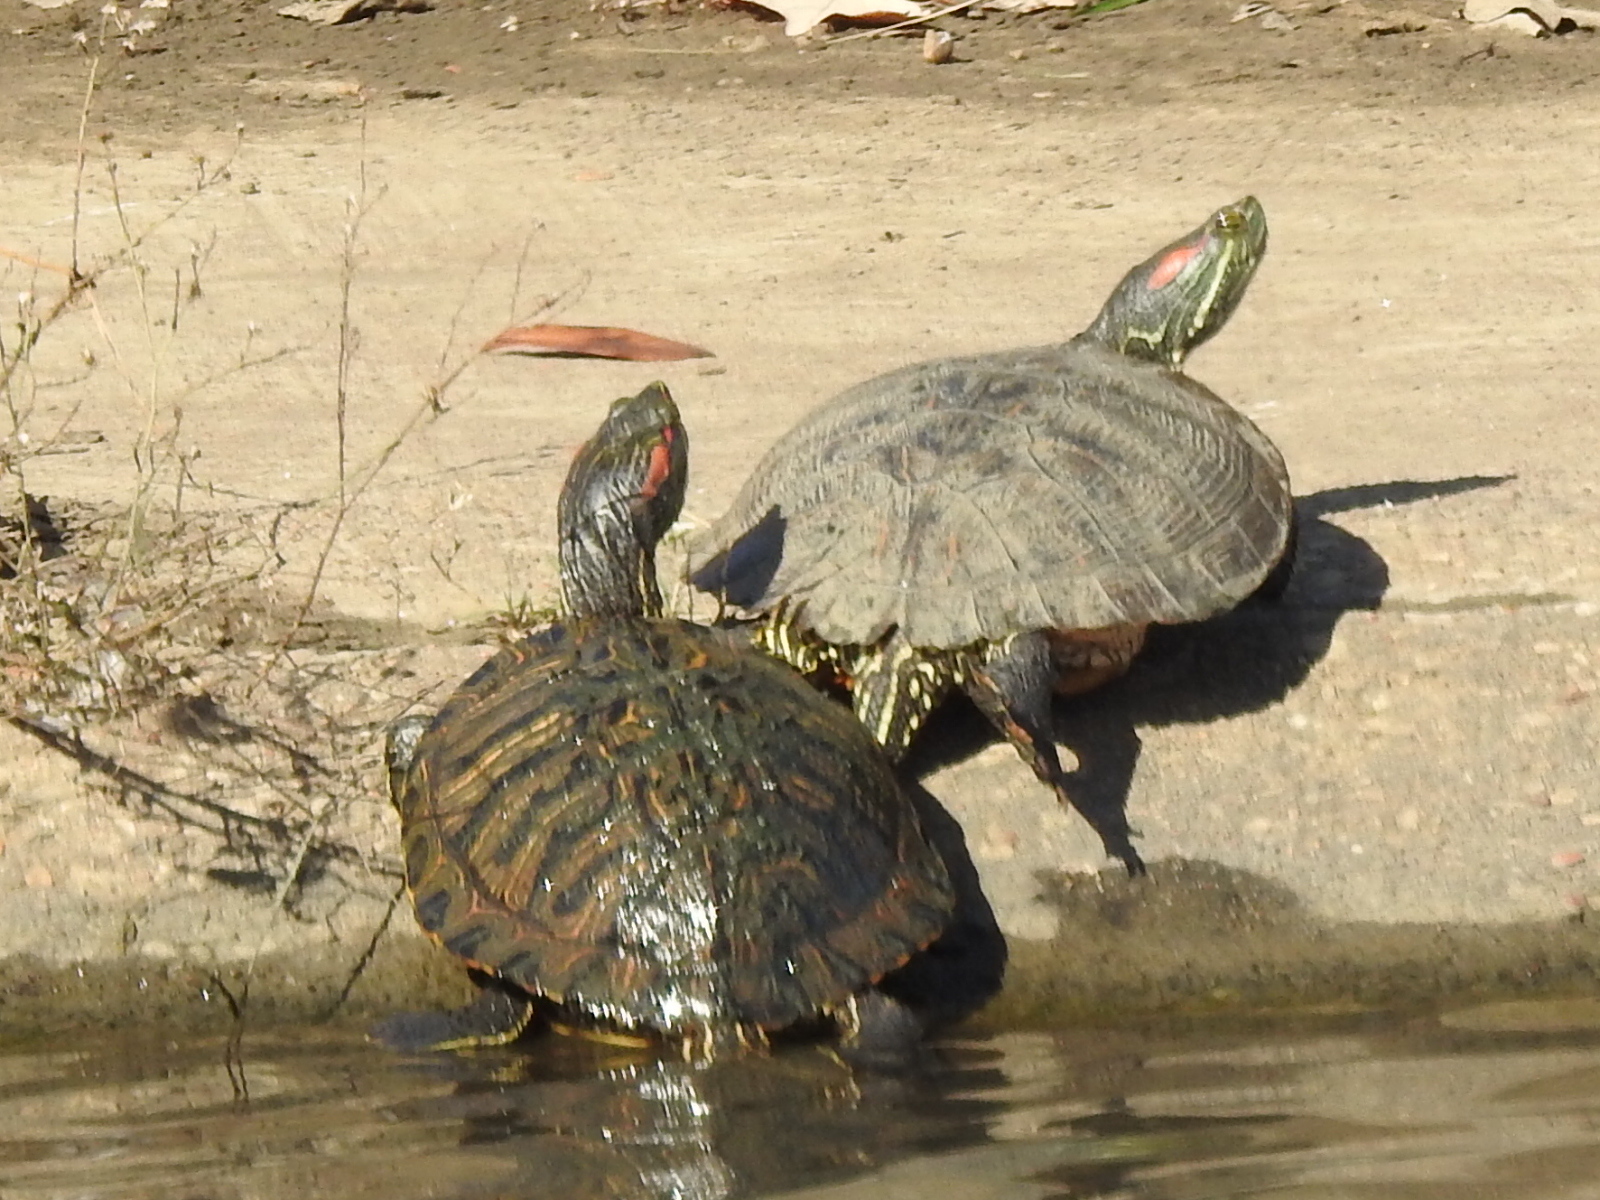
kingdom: Animalia
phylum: Chordata
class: Testudines
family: Emydidae
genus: Trachemys
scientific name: Trachemys scripta
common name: Slider
